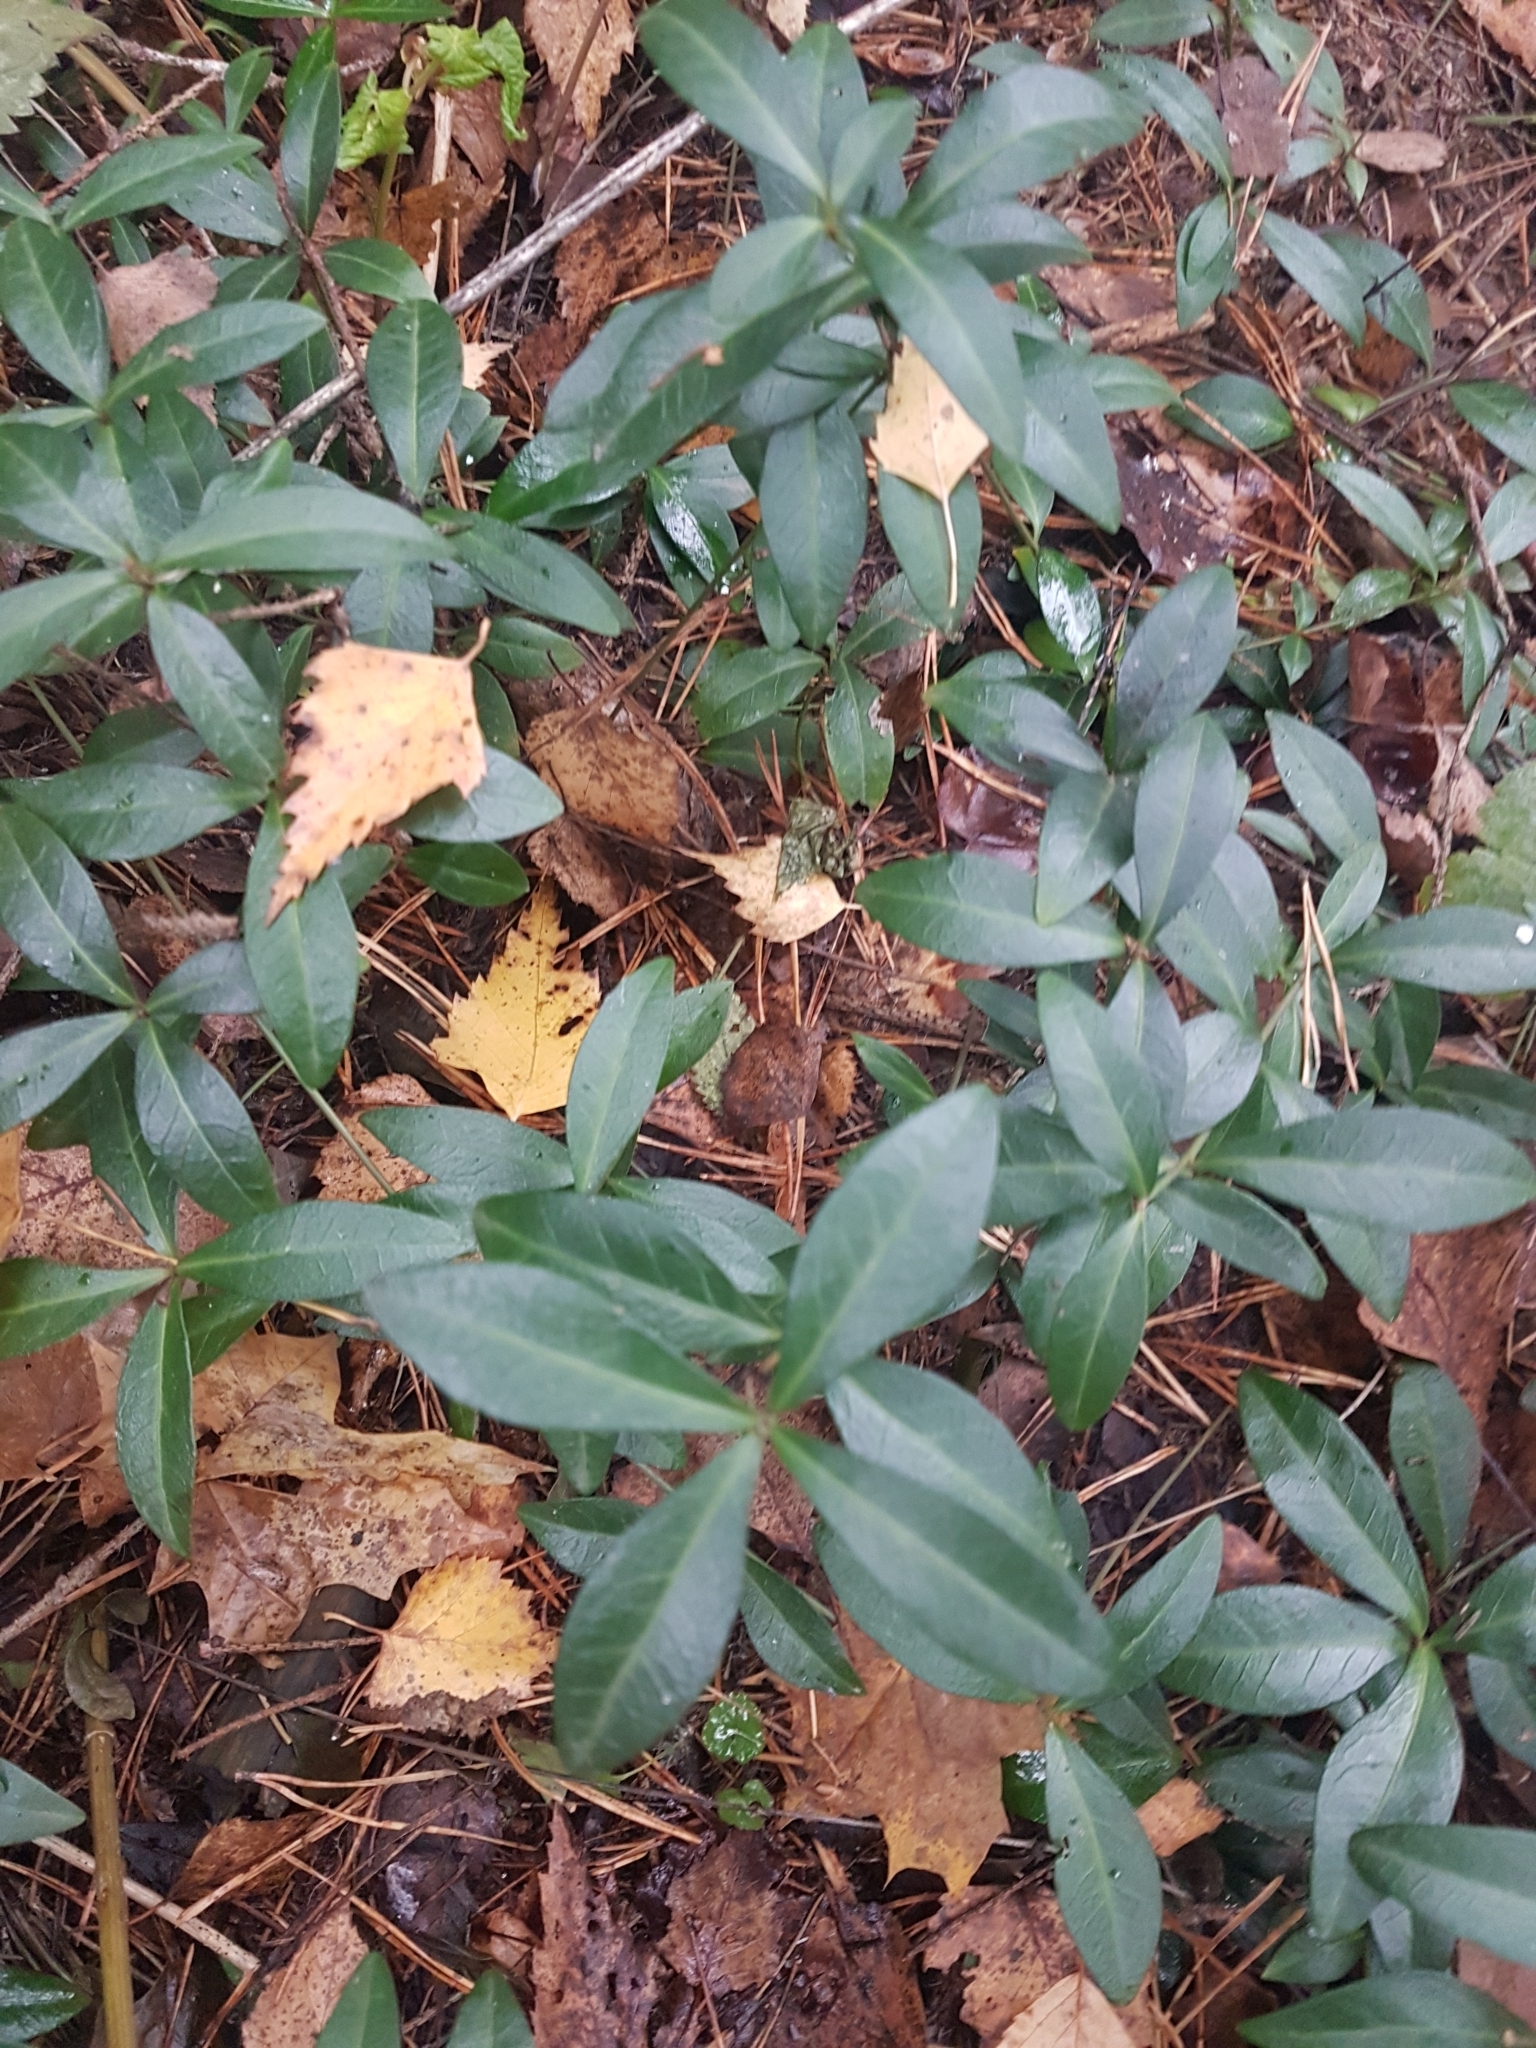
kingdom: Plantae
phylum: Tracheophyta
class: Magnoliopsida
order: Gentianales
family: Apocynaceae
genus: Vinca
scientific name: Vinca minor
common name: Lesser periwinkle
